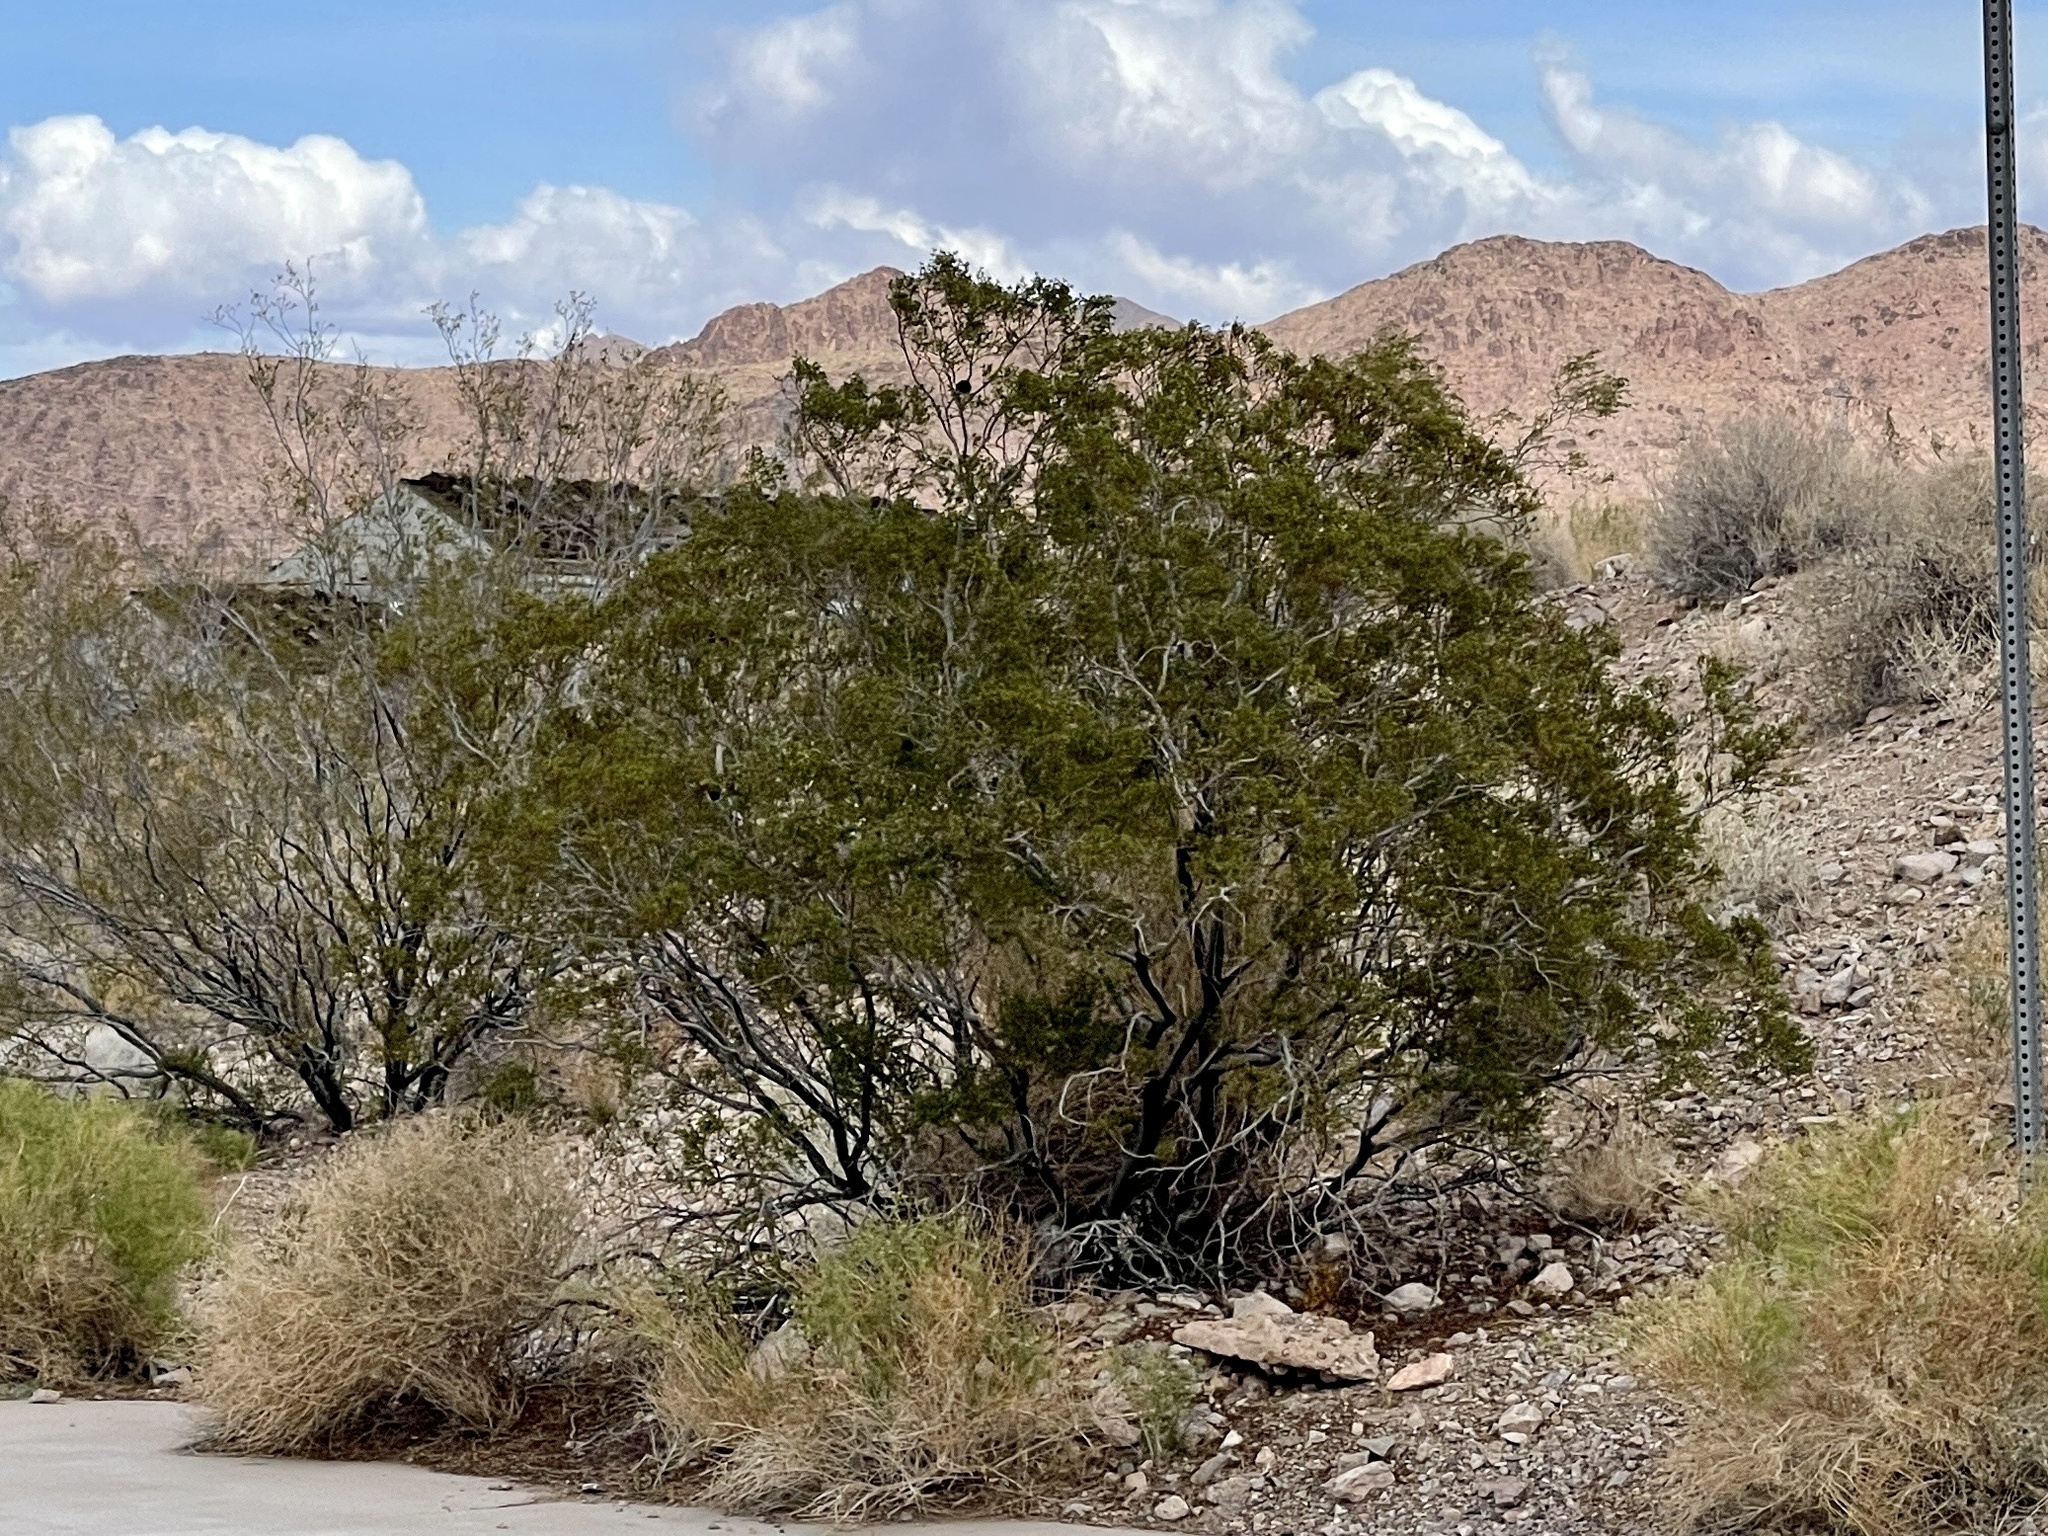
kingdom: Plantae
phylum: Tracheophyta
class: Magnoliopsida
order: Zygophyllales
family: Zygophyllaceae
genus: Larrea
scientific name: Larrea tridentata
